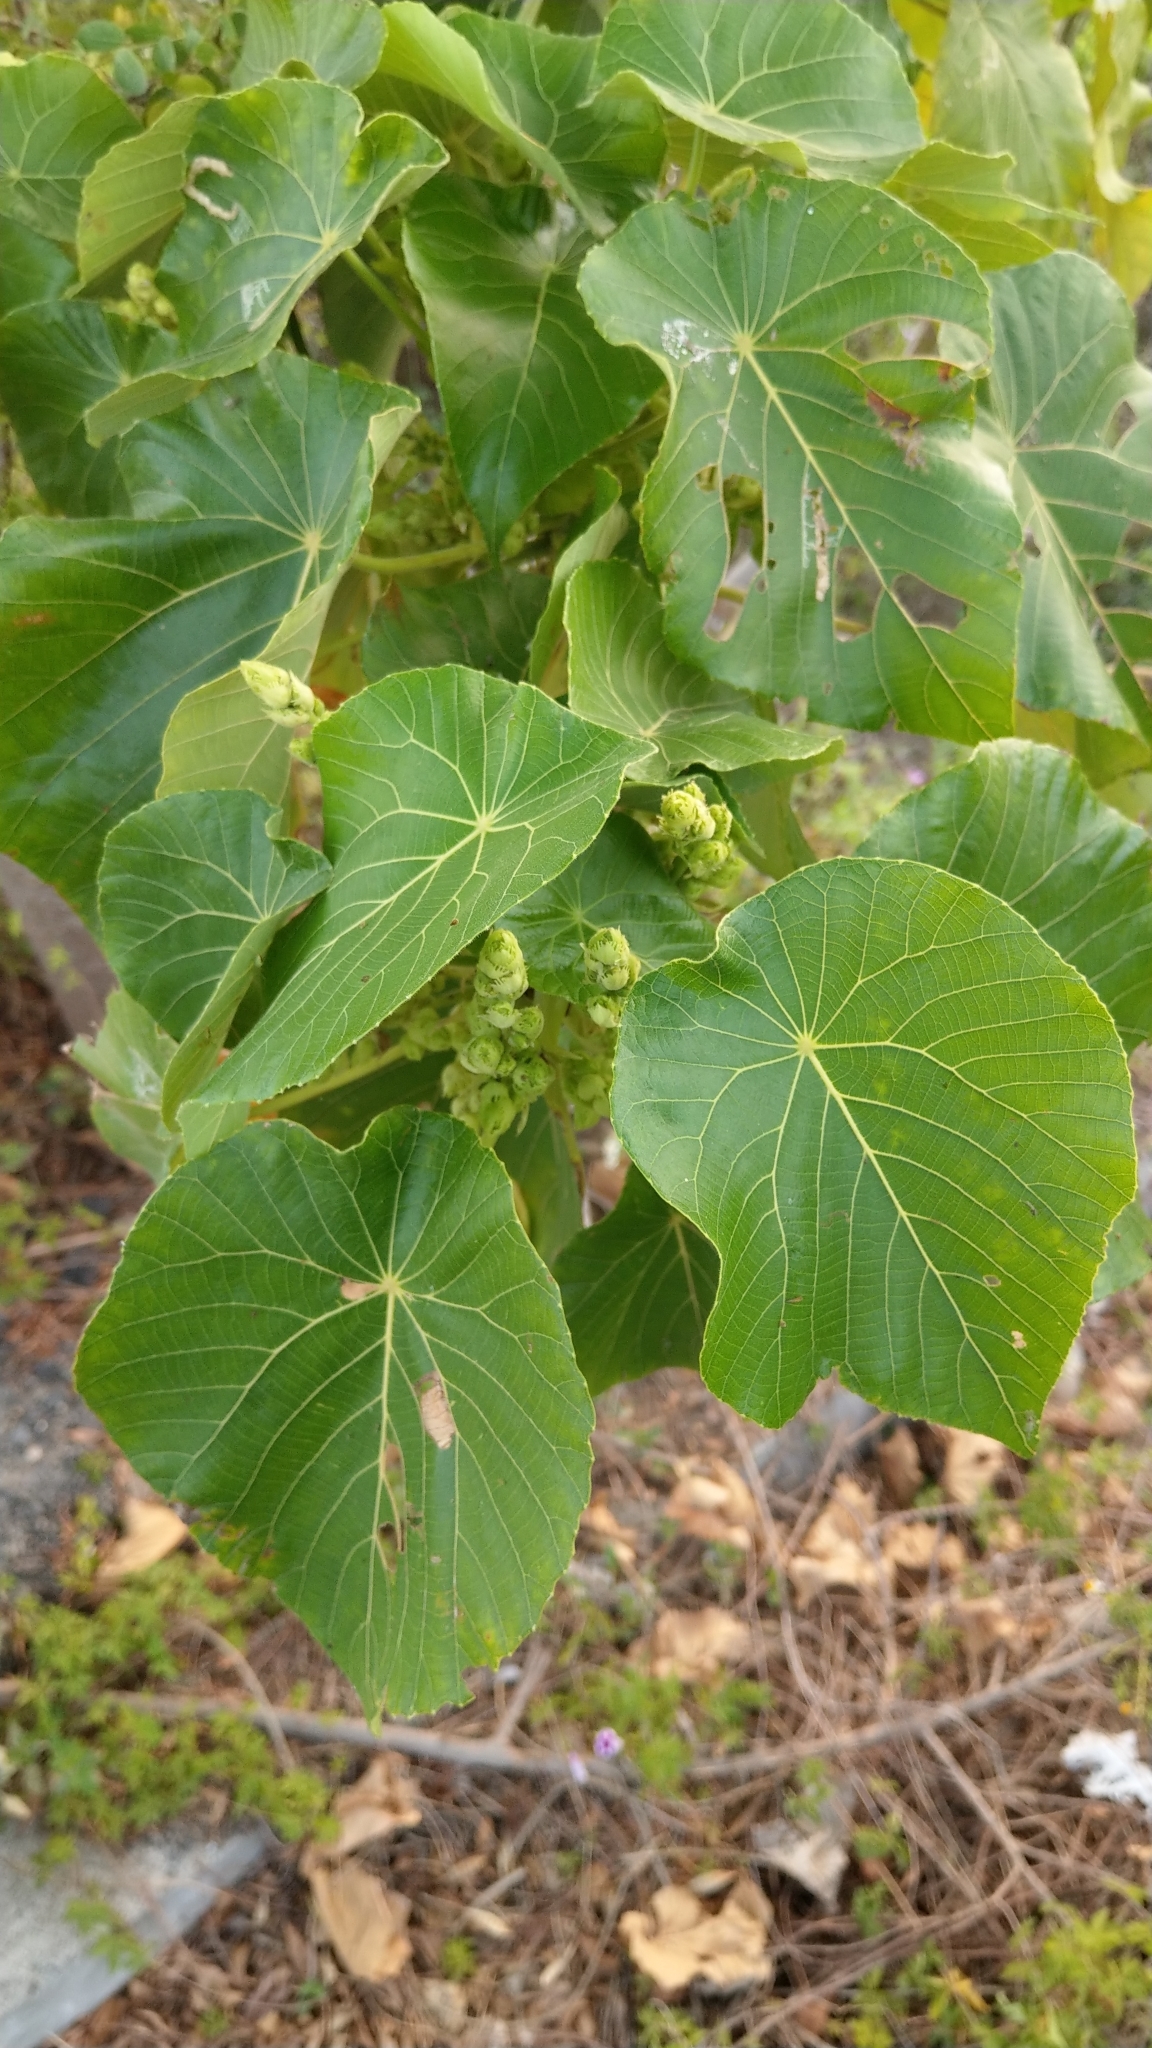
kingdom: Plantae
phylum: Tracheophyta
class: Magnoliopsida
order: Malpighiales
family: Euphorbiaceae
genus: Macaranga
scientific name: Macaranga tanarius
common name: Parasol leaf tree
